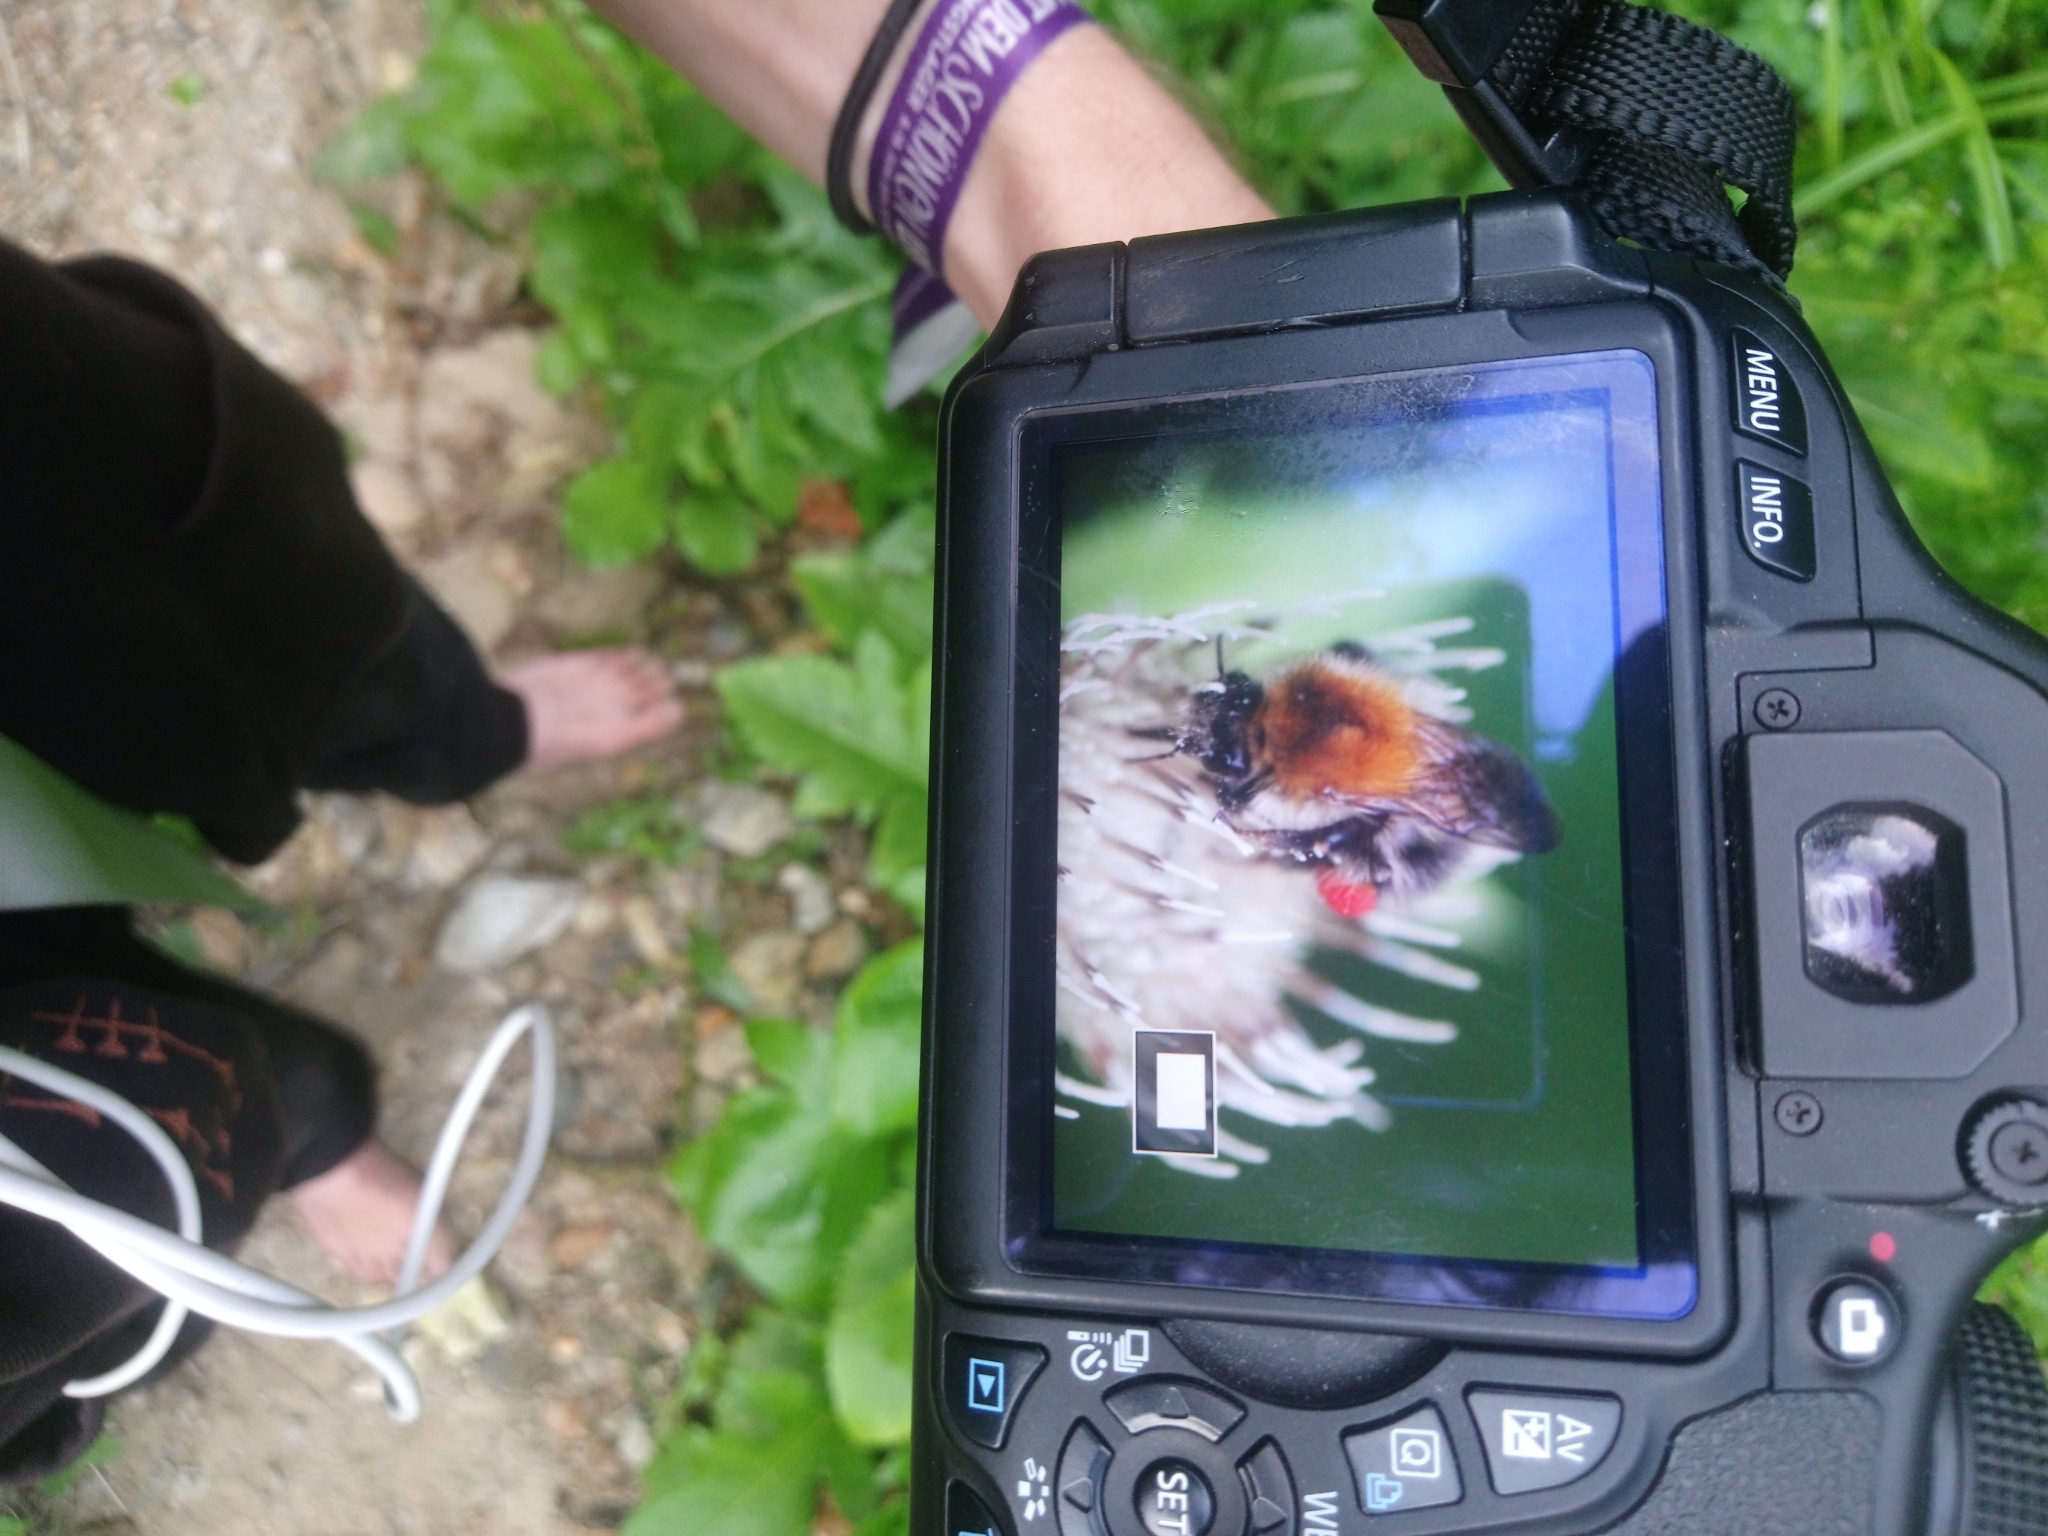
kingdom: Animalia
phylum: Arthropoda
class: Insecta
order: Hymenoptera
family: Apidae
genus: Bombus
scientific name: Bombus pascuorum
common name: Common carder bee
